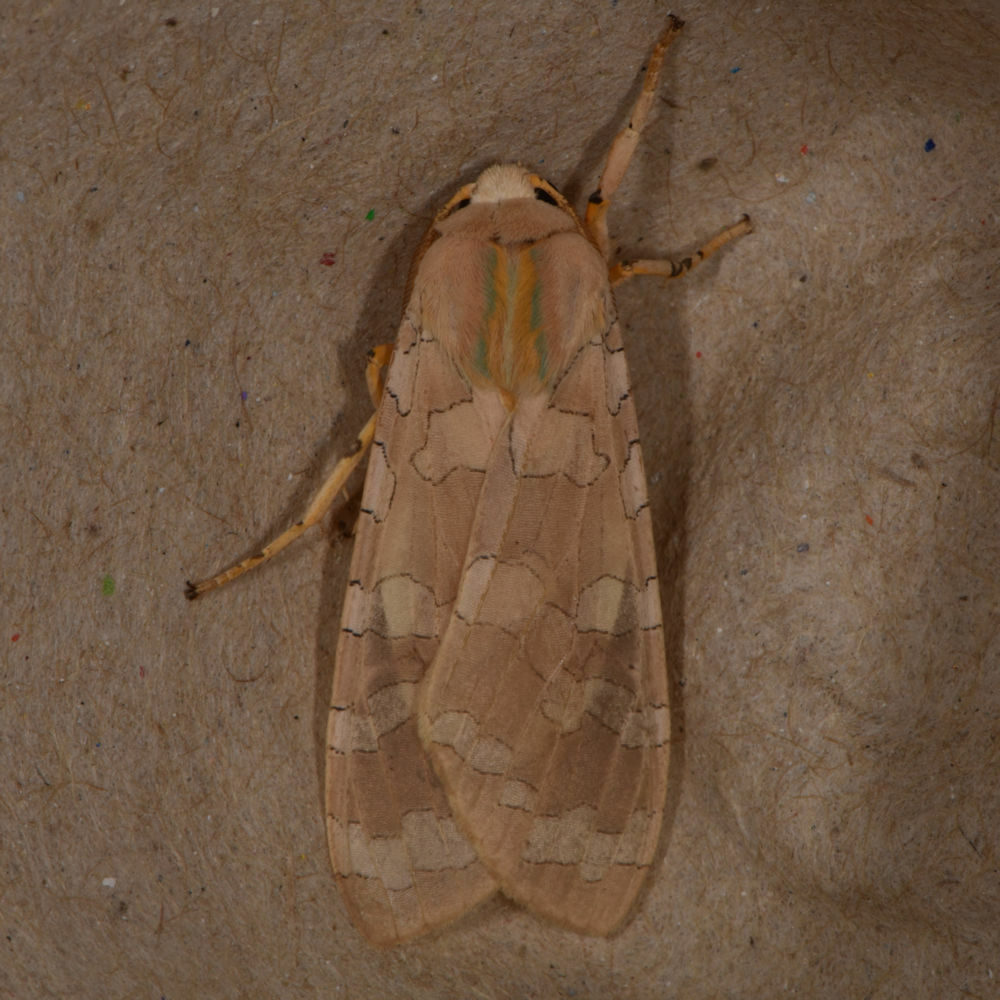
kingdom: Animalia
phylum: Arthropoda
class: Insecta
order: Lepidoptera
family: Erebidae
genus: Halysidota
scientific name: Halysidota tessellaris
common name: Banded tussock moth
